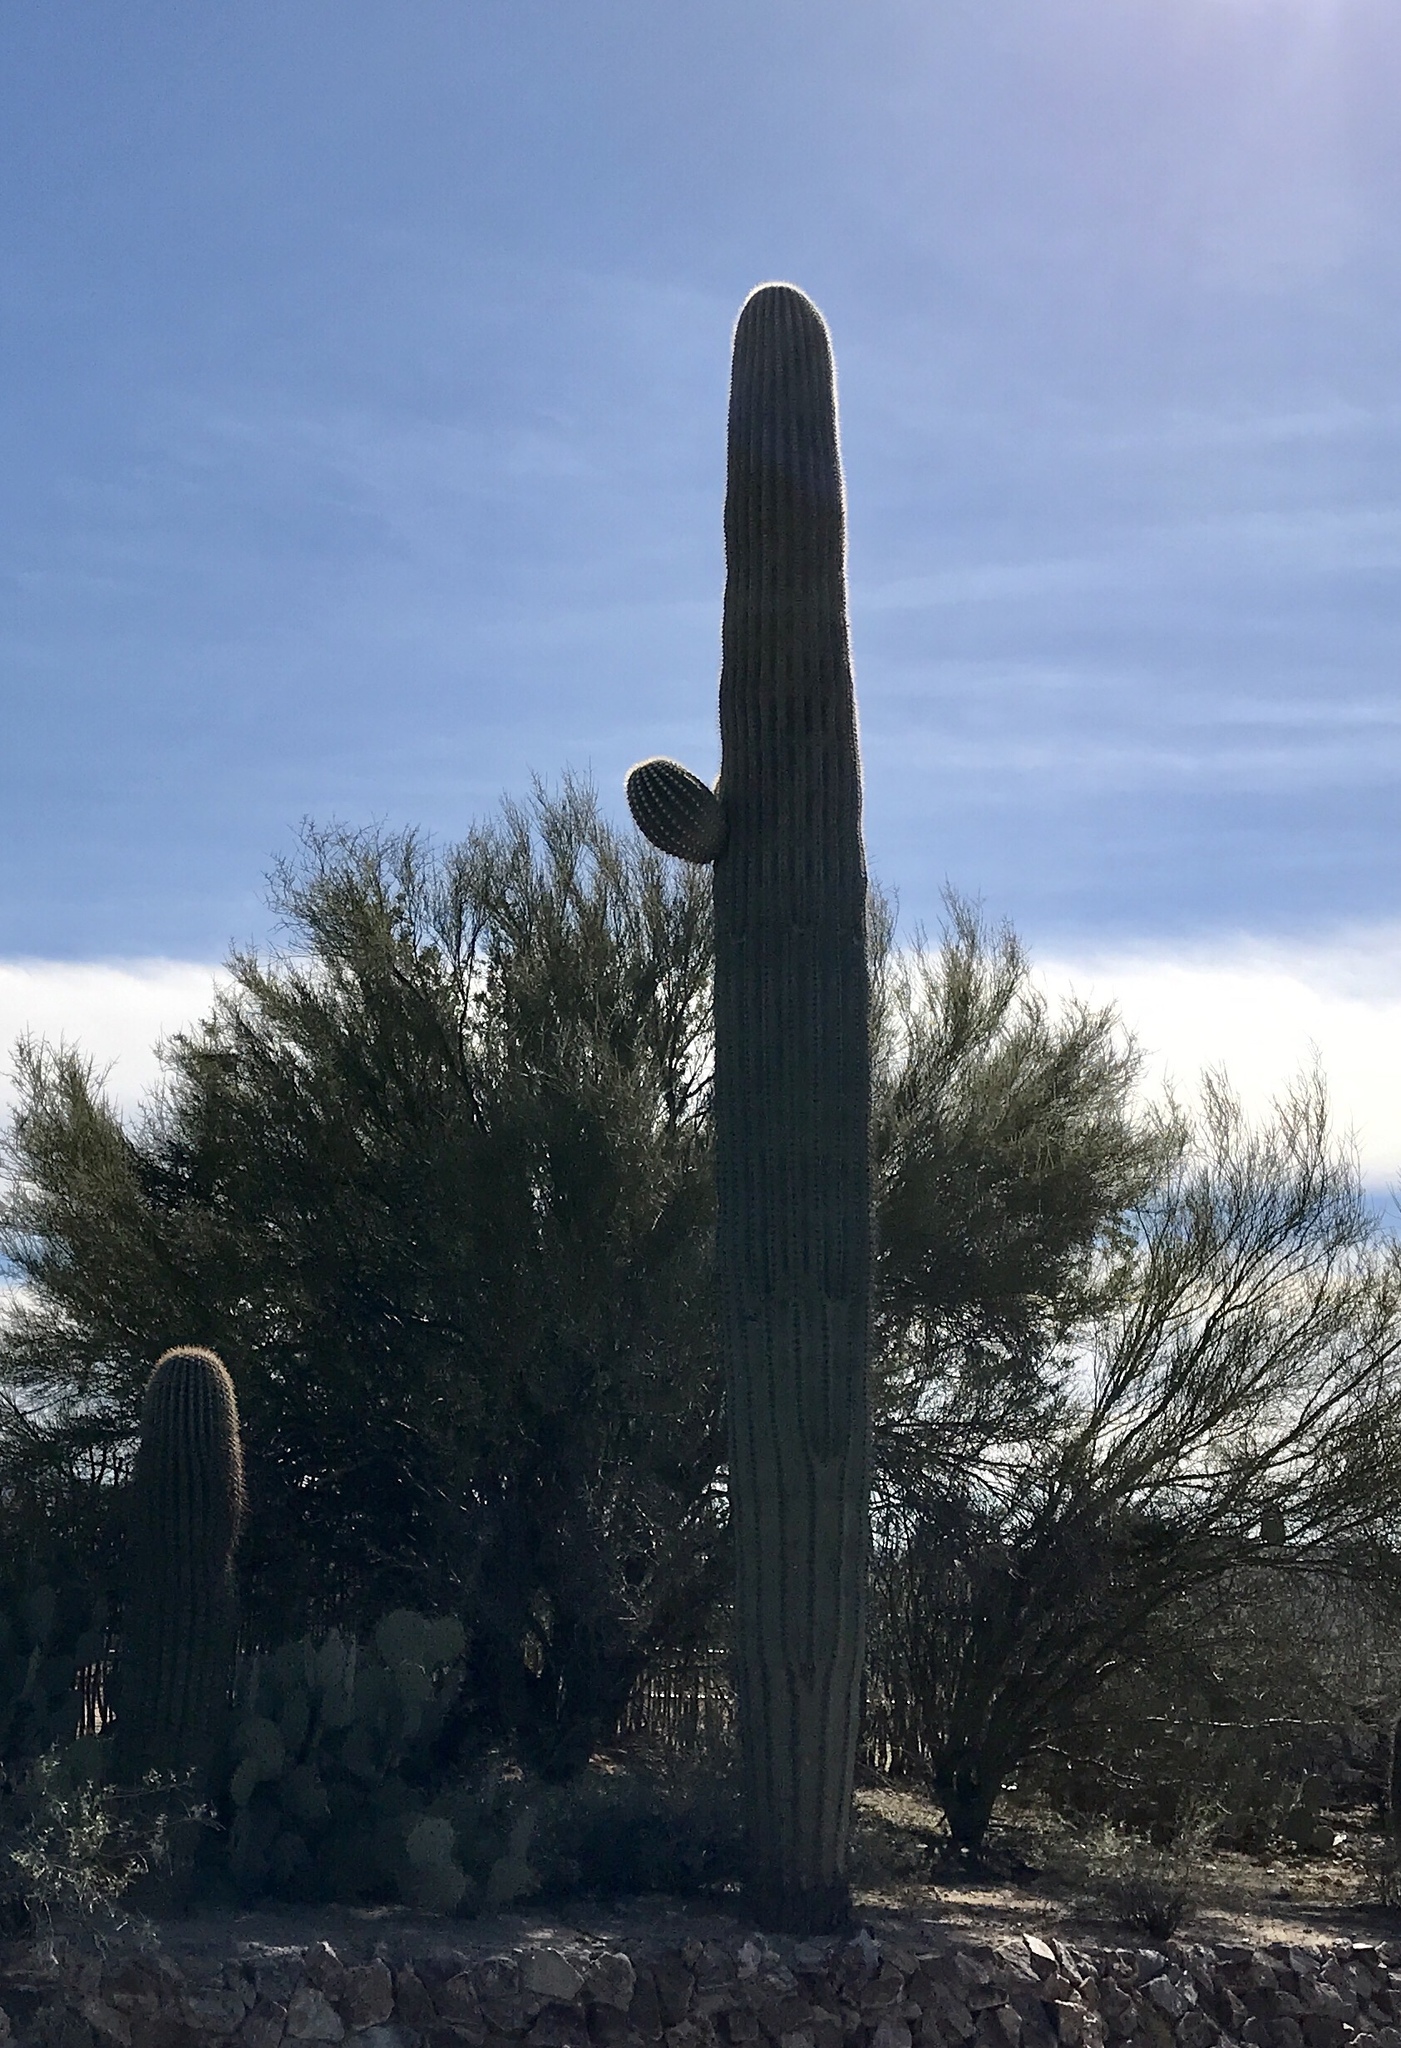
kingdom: Plantae
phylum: Tracheophyta
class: Magnoliopsida
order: Caryophyllales
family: Cactaceae
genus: Carnegiea
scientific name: Carnegiea gigantea
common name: Saguaro
